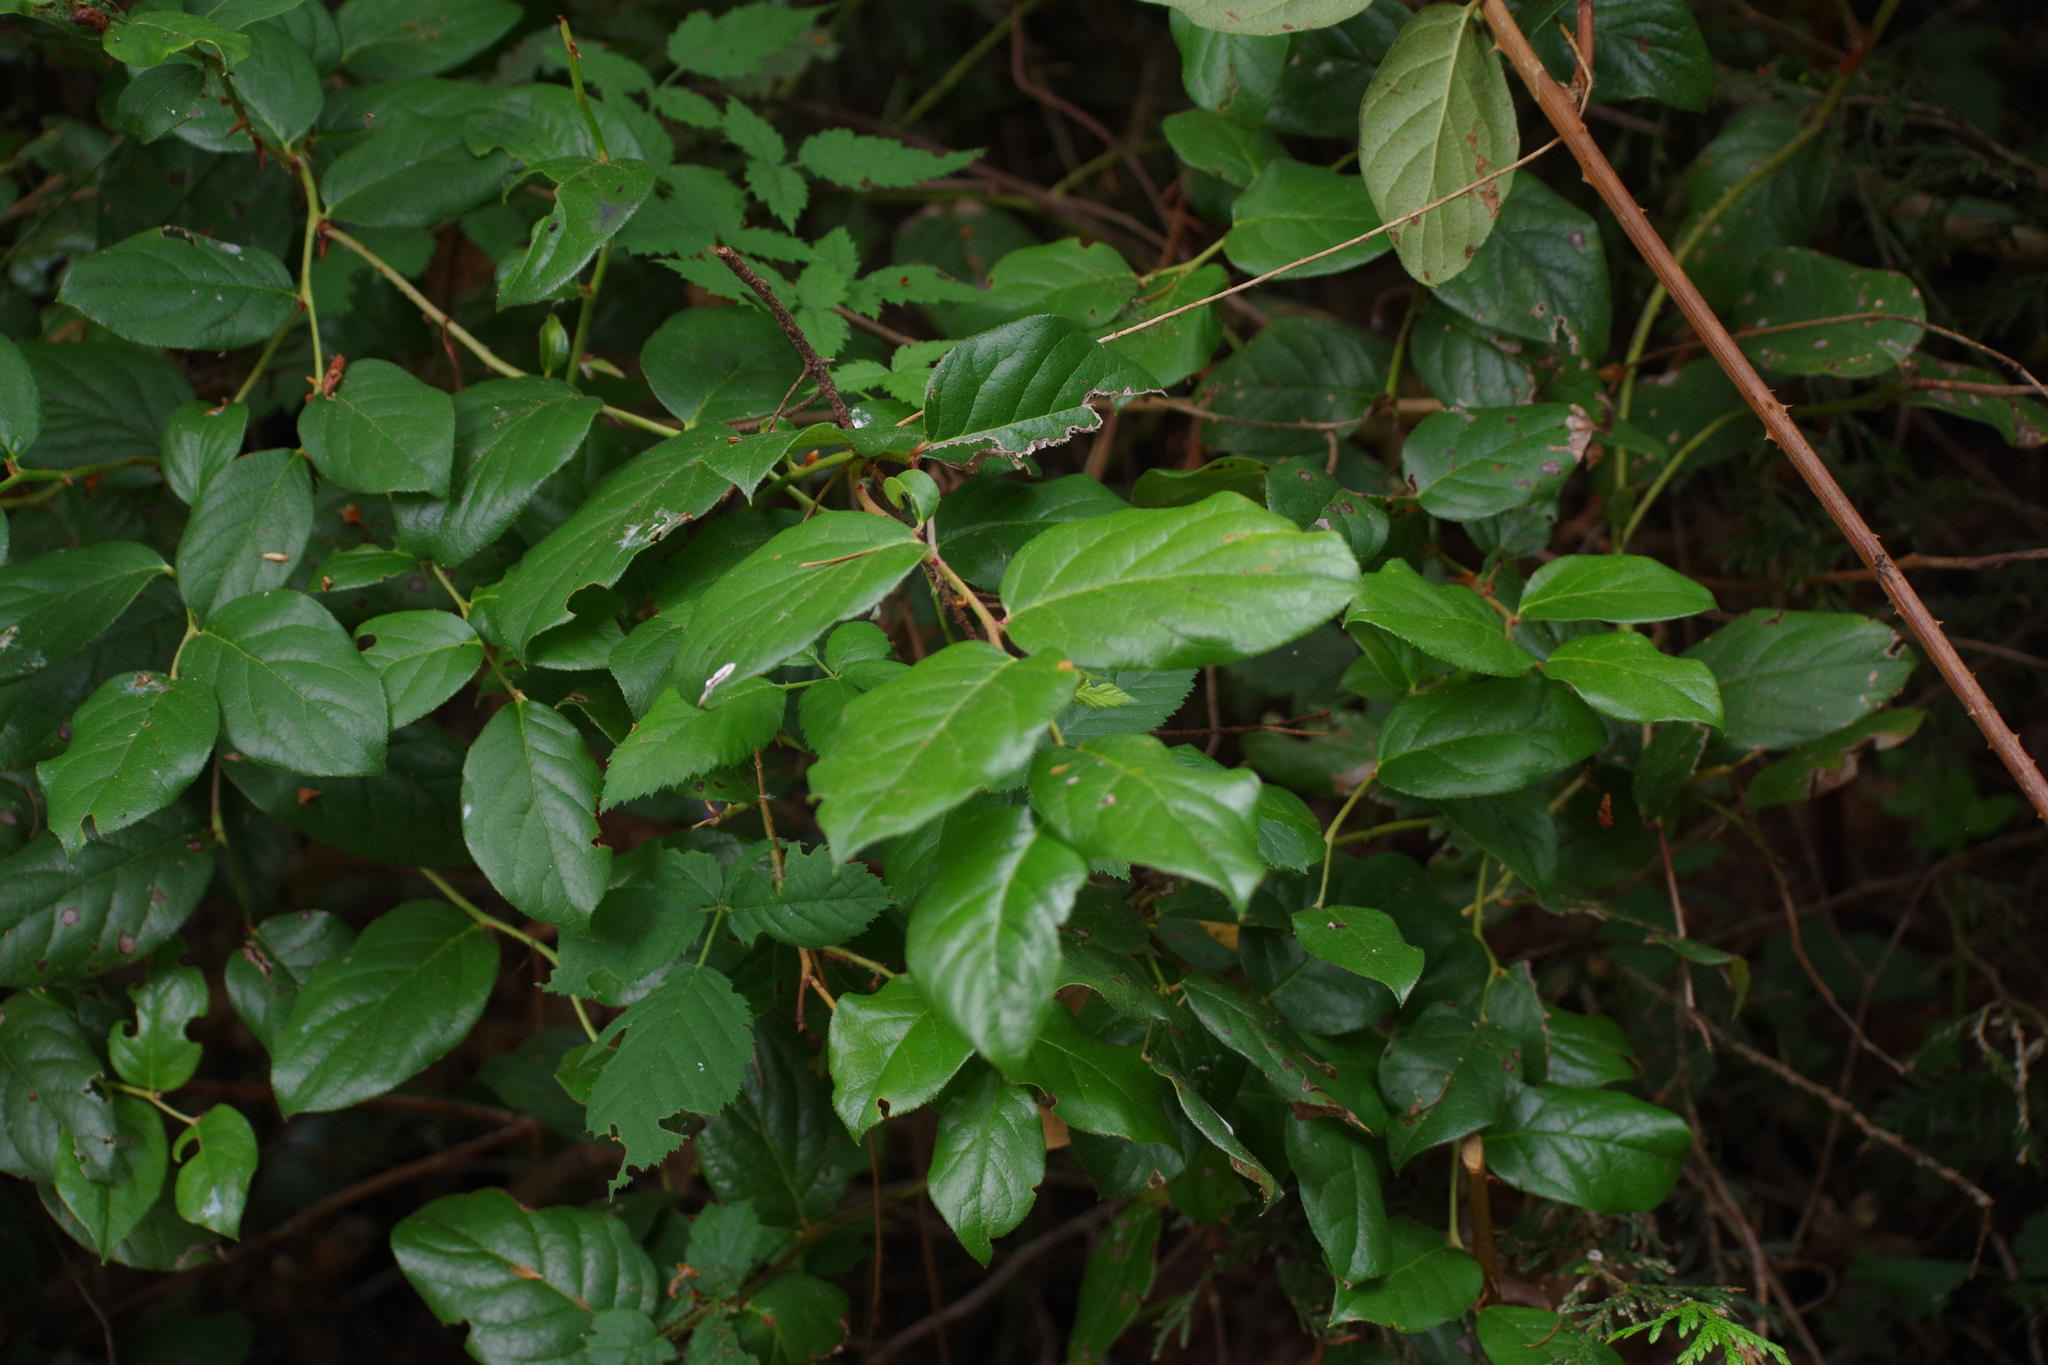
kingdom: Plantae
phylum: Tracheophyta
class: Magnoliopsida
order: Ericales
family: Ericaceae
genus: Gaultheria
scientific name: Gaultheria shallon
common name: Shallon
